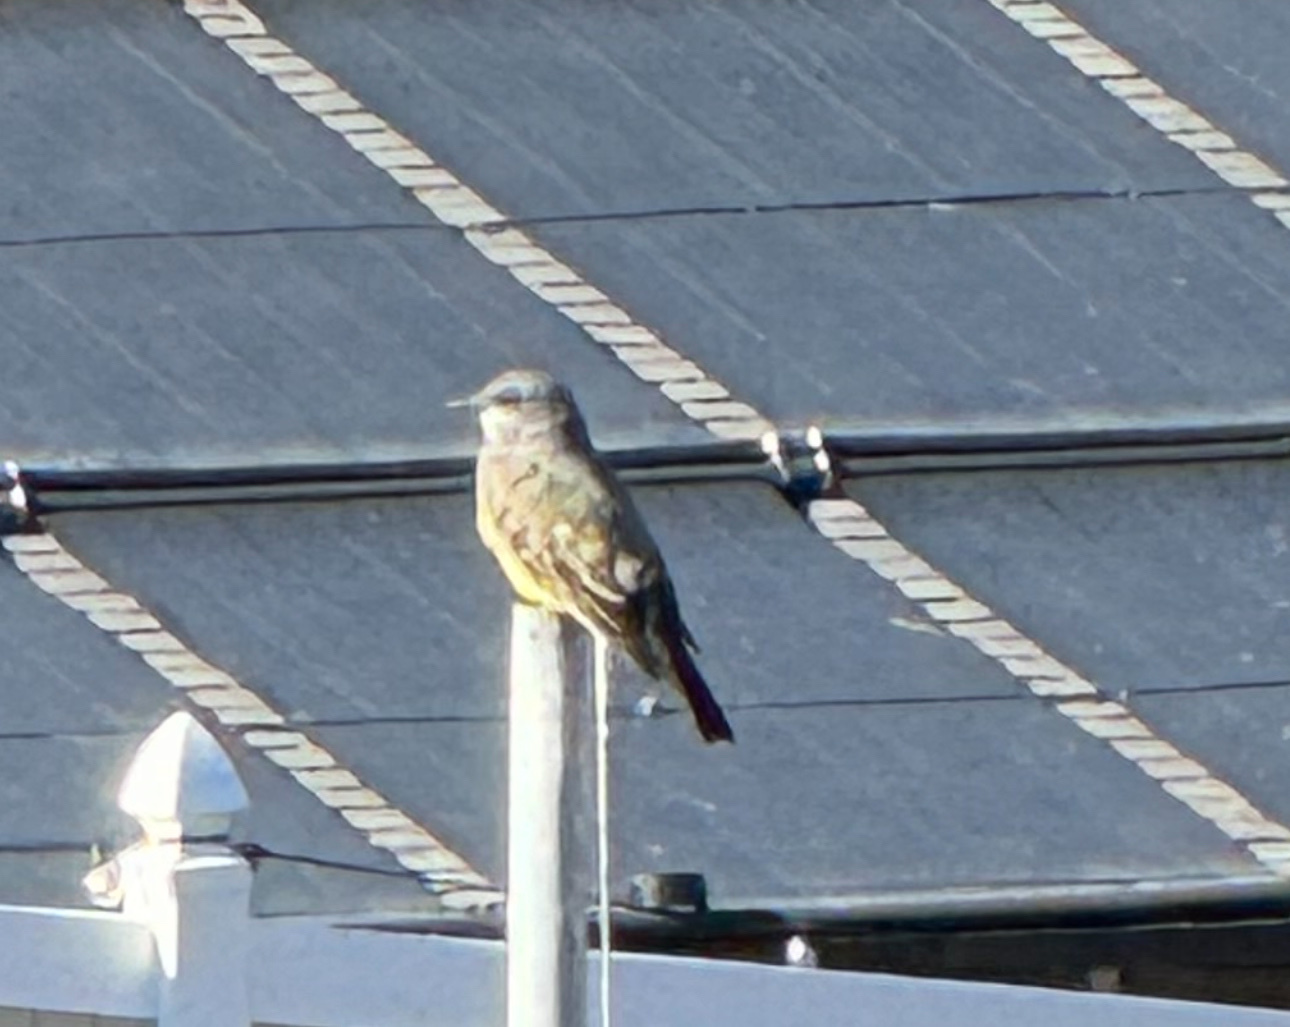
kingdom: Animalia
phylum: Chordata
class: Aves
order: Passeriformes
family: Tyrannidae
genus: Tyrannus
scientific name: Tyrannus vociferans
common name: Cassin's kingbird
